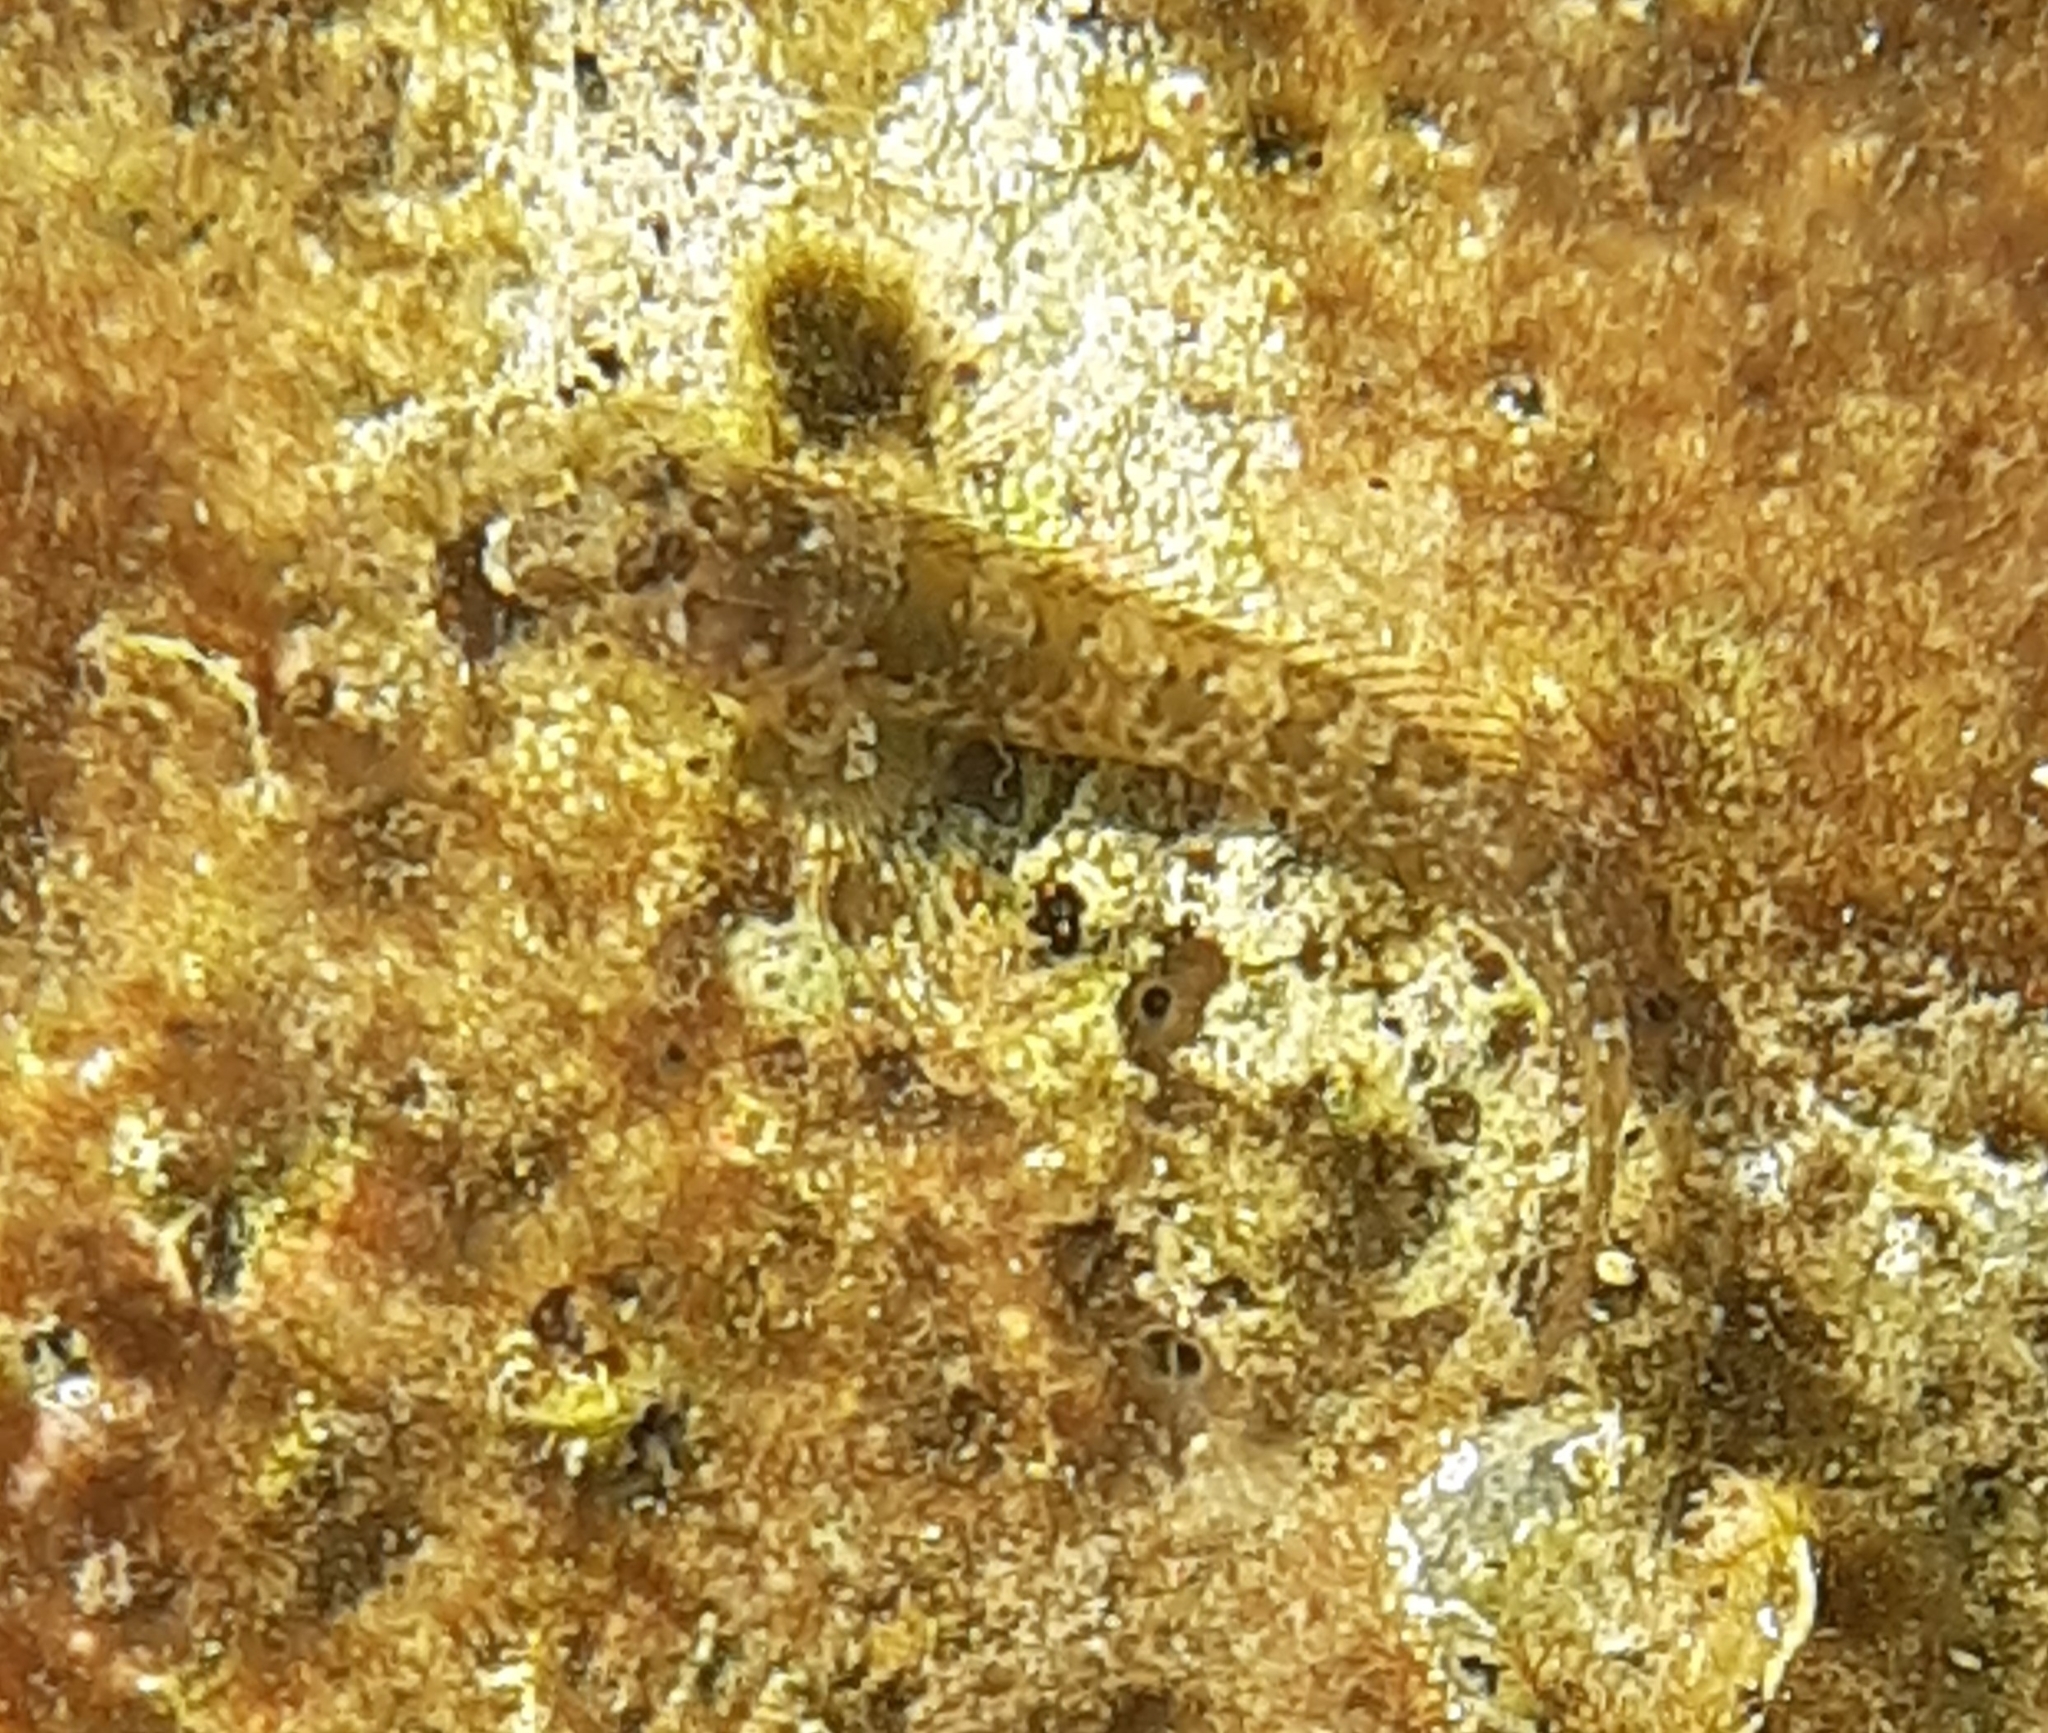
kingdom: Animalia
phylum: Chordata
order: Perciformes
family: Blenniidae
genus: Parablennius
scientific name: Parablennius incognitus
